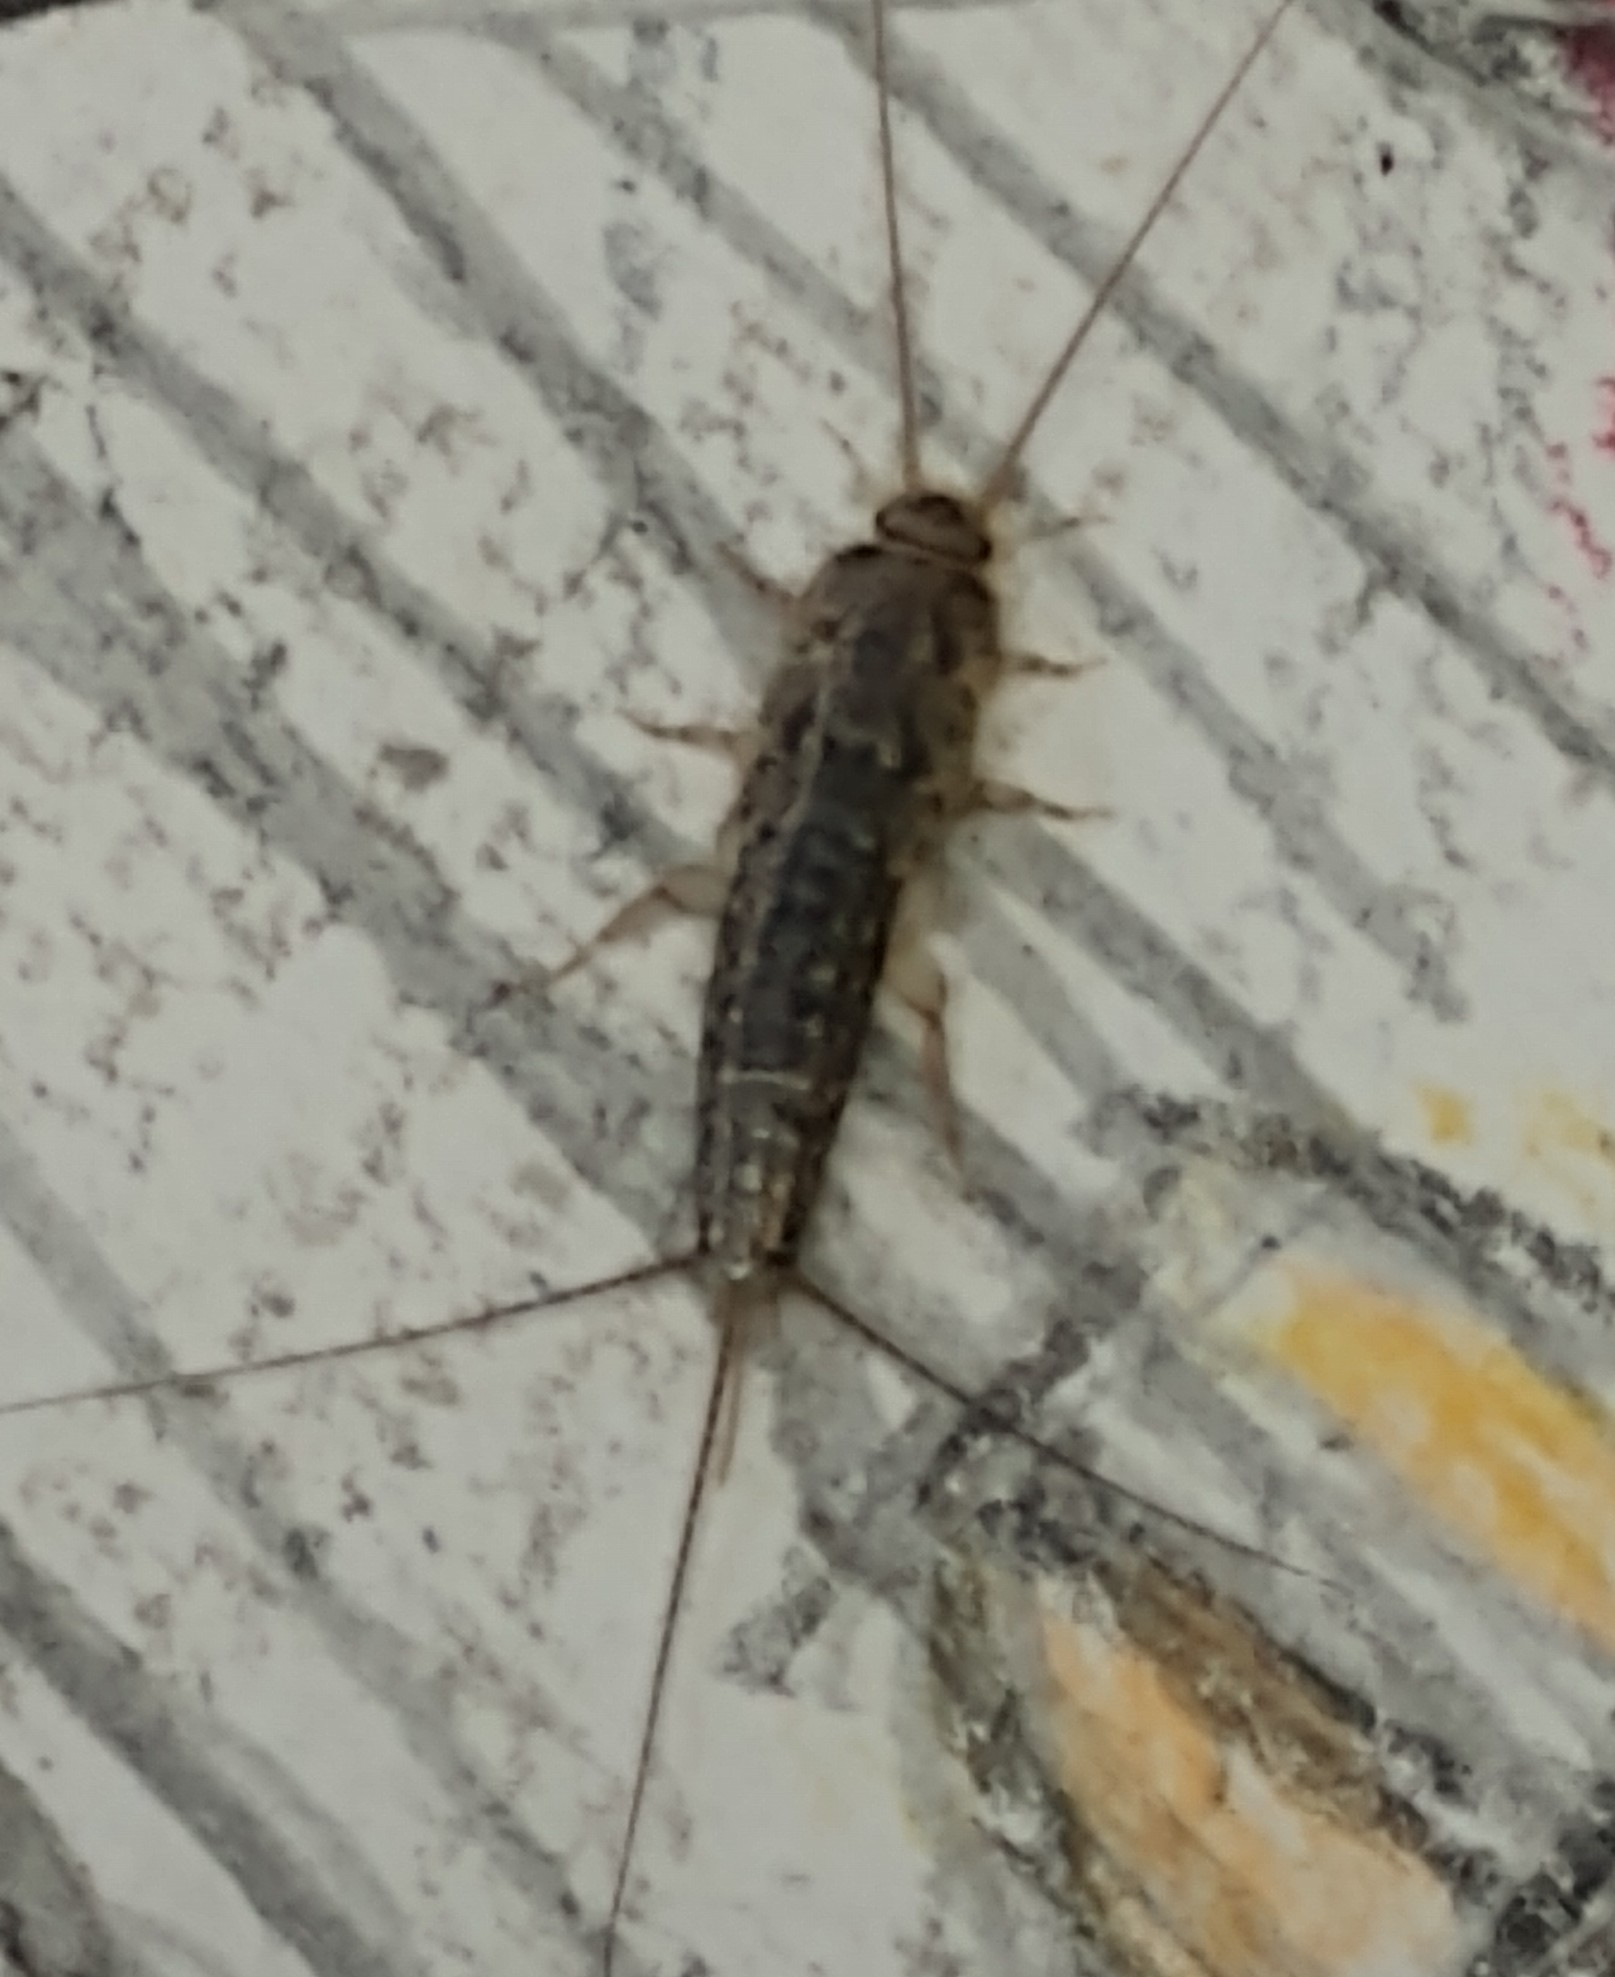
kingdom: Animalia
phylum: Arthropoda
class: Insecta
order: Zygentoma
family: Lepismatidae
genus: Ctenolepisma
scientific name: Ctenolepisma lineata
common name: Four-lined silverfish
